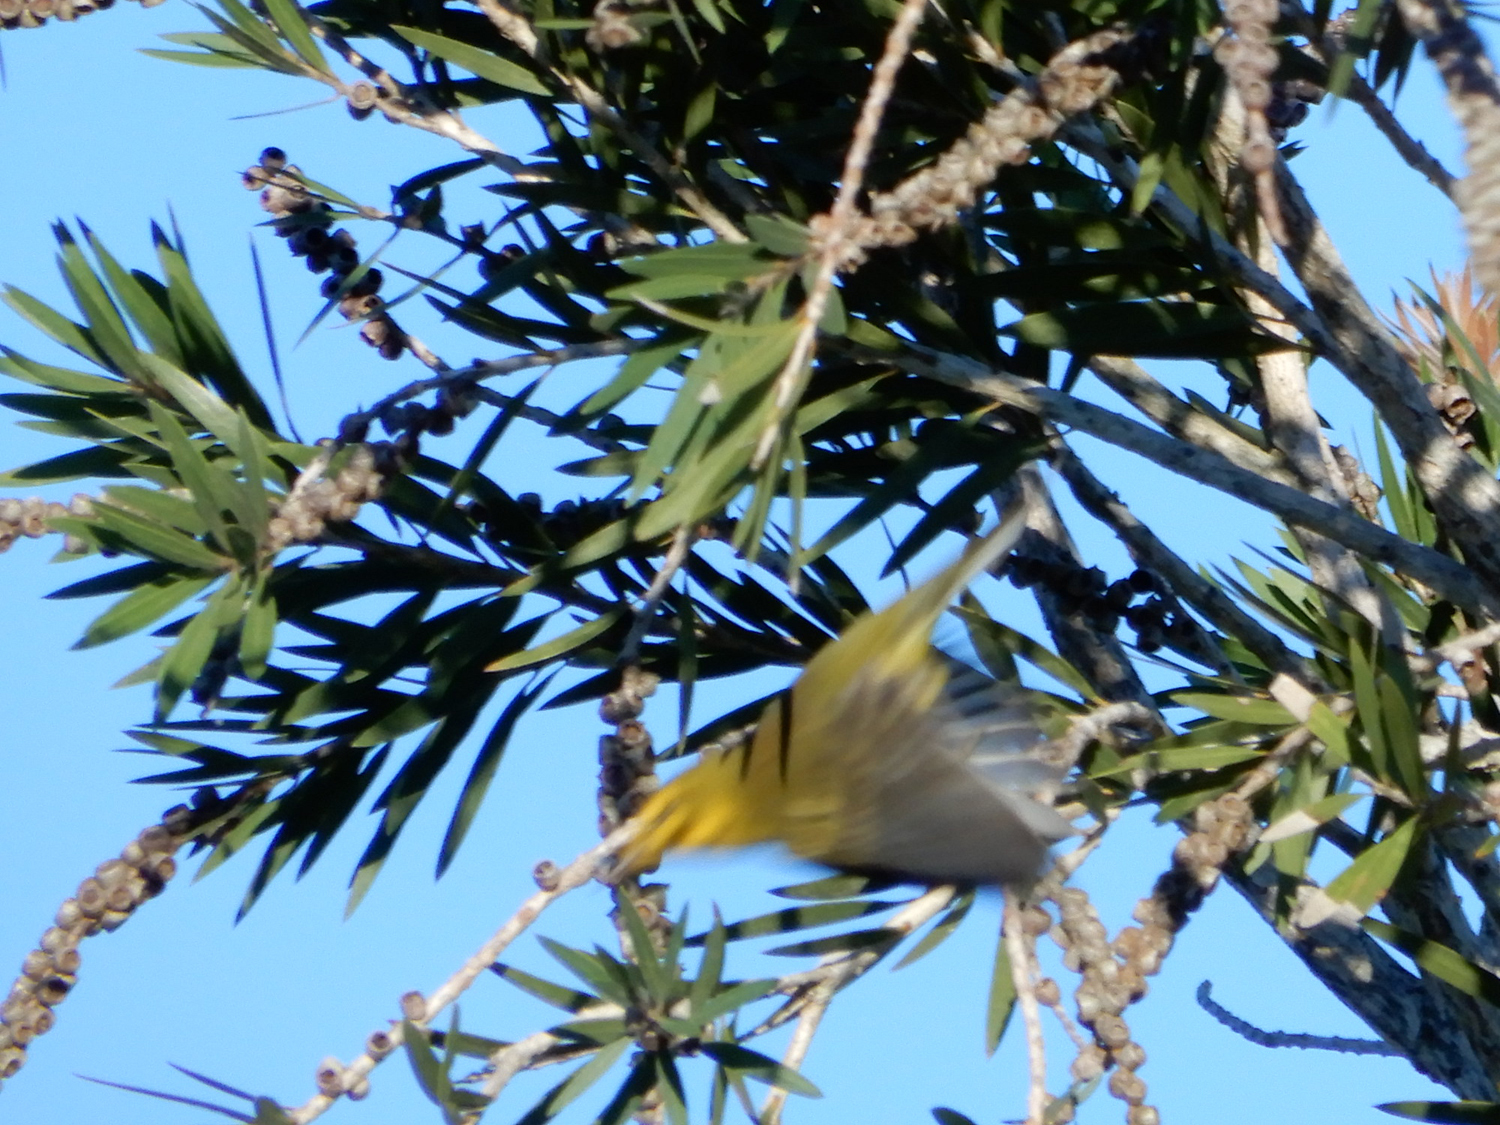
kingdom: Animalia
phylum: Chordata
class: Aves
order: Passeriformes
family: Parulidae
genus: Setophaga
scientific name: Setophaga discolor
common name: Prairie warbler
